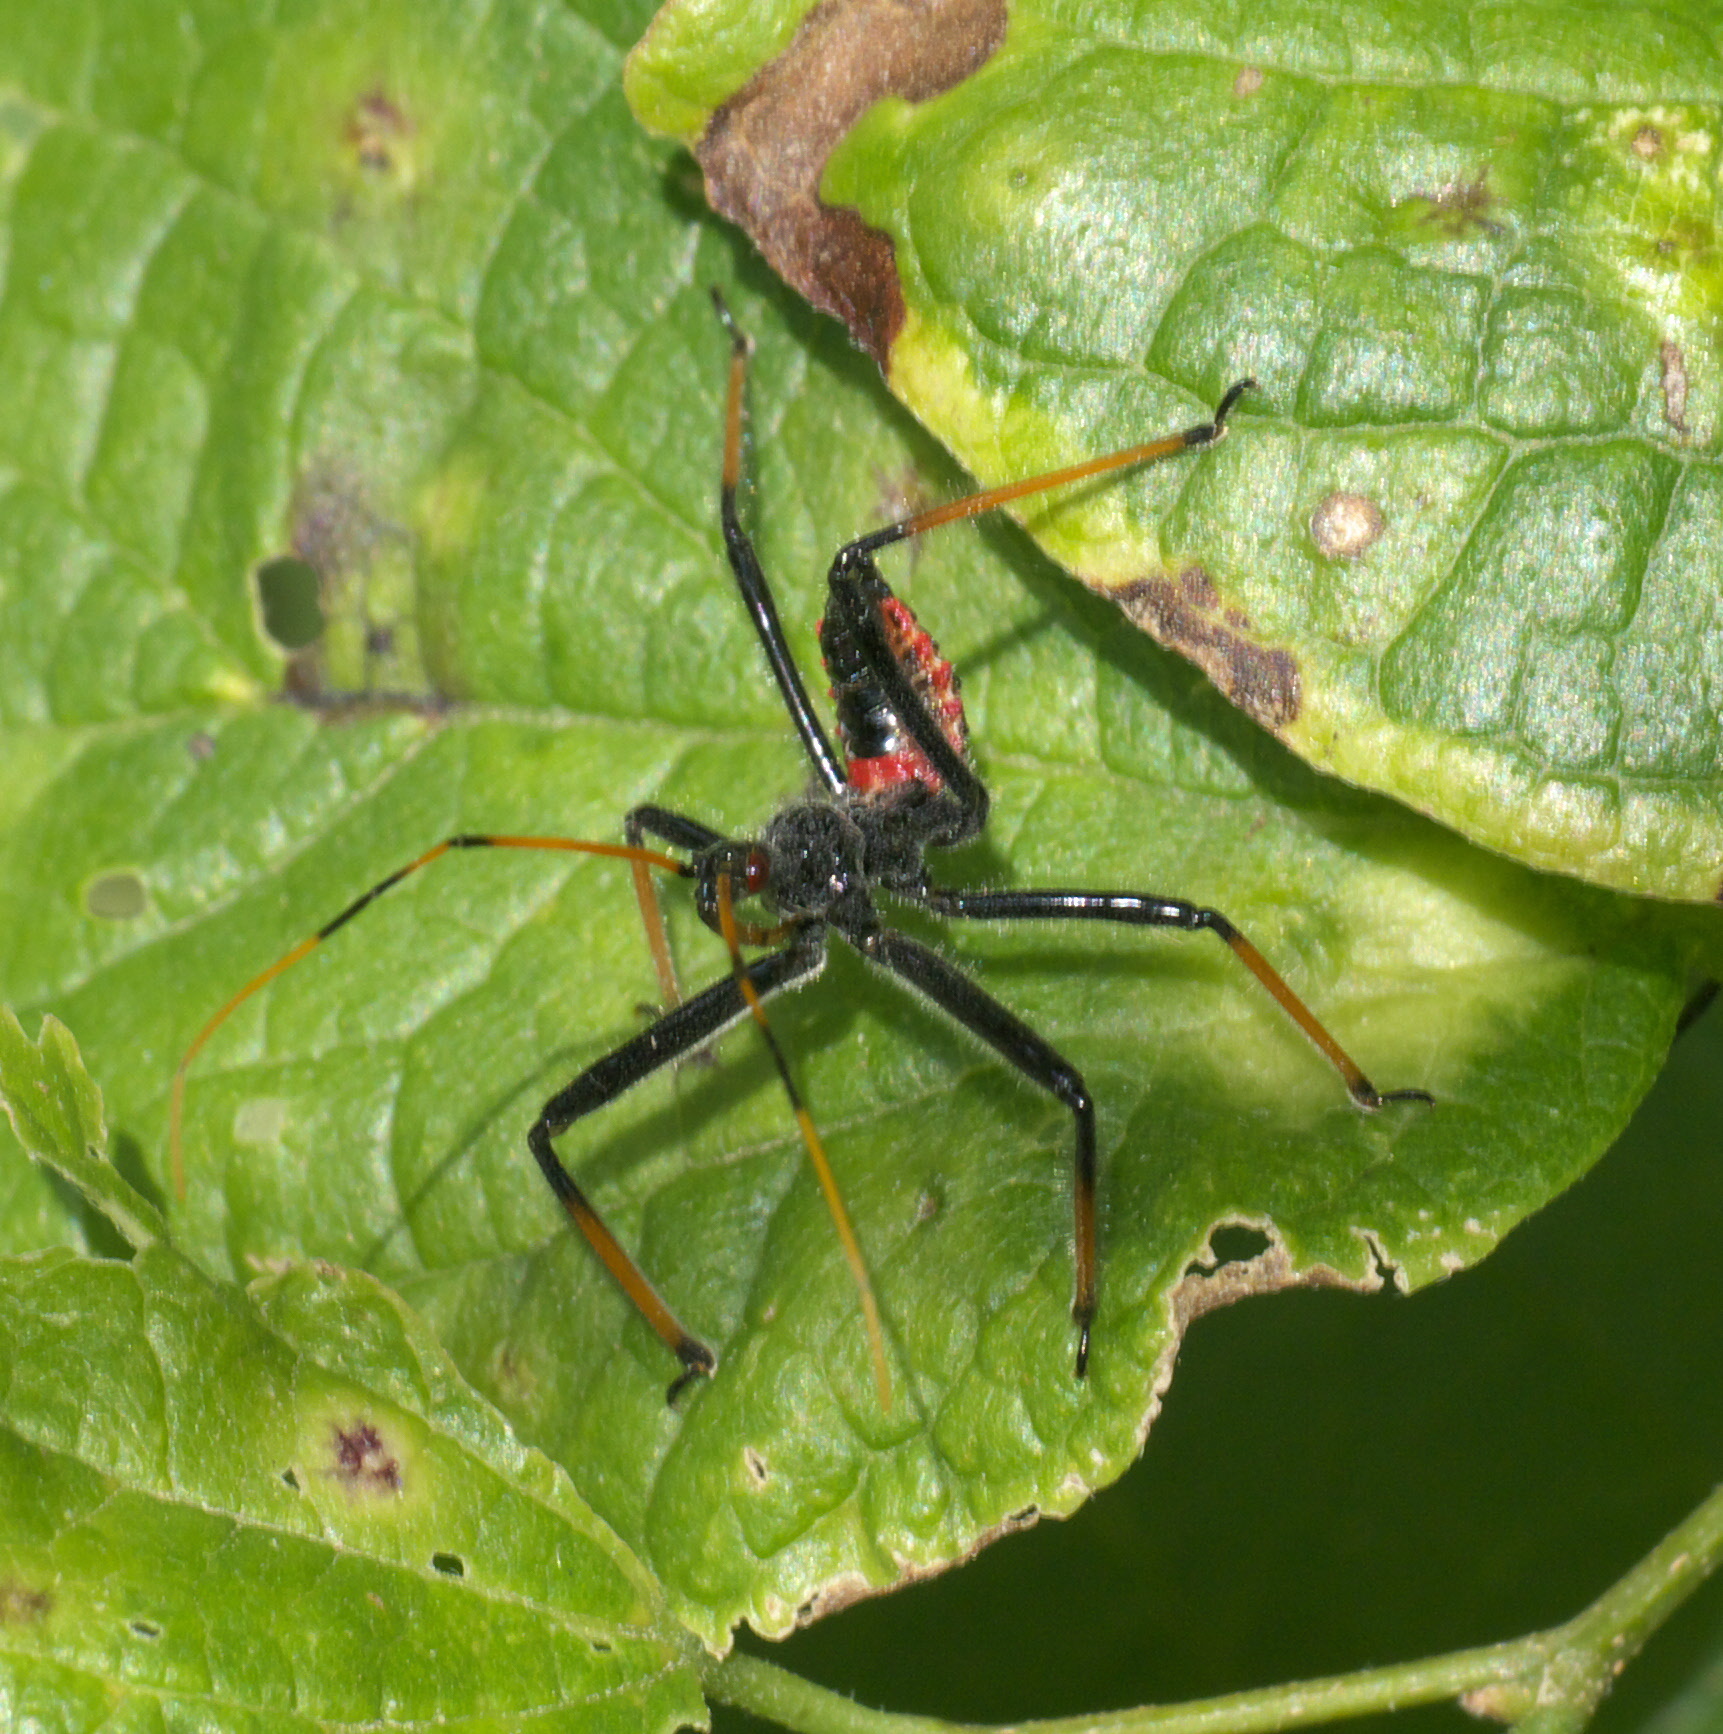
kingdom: Animalia
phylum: Arthropoda
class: Insecta
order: Hemiptera
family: Reduviidae
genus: Arilus
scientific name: Arilus cristatus
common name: North american wheel bug
